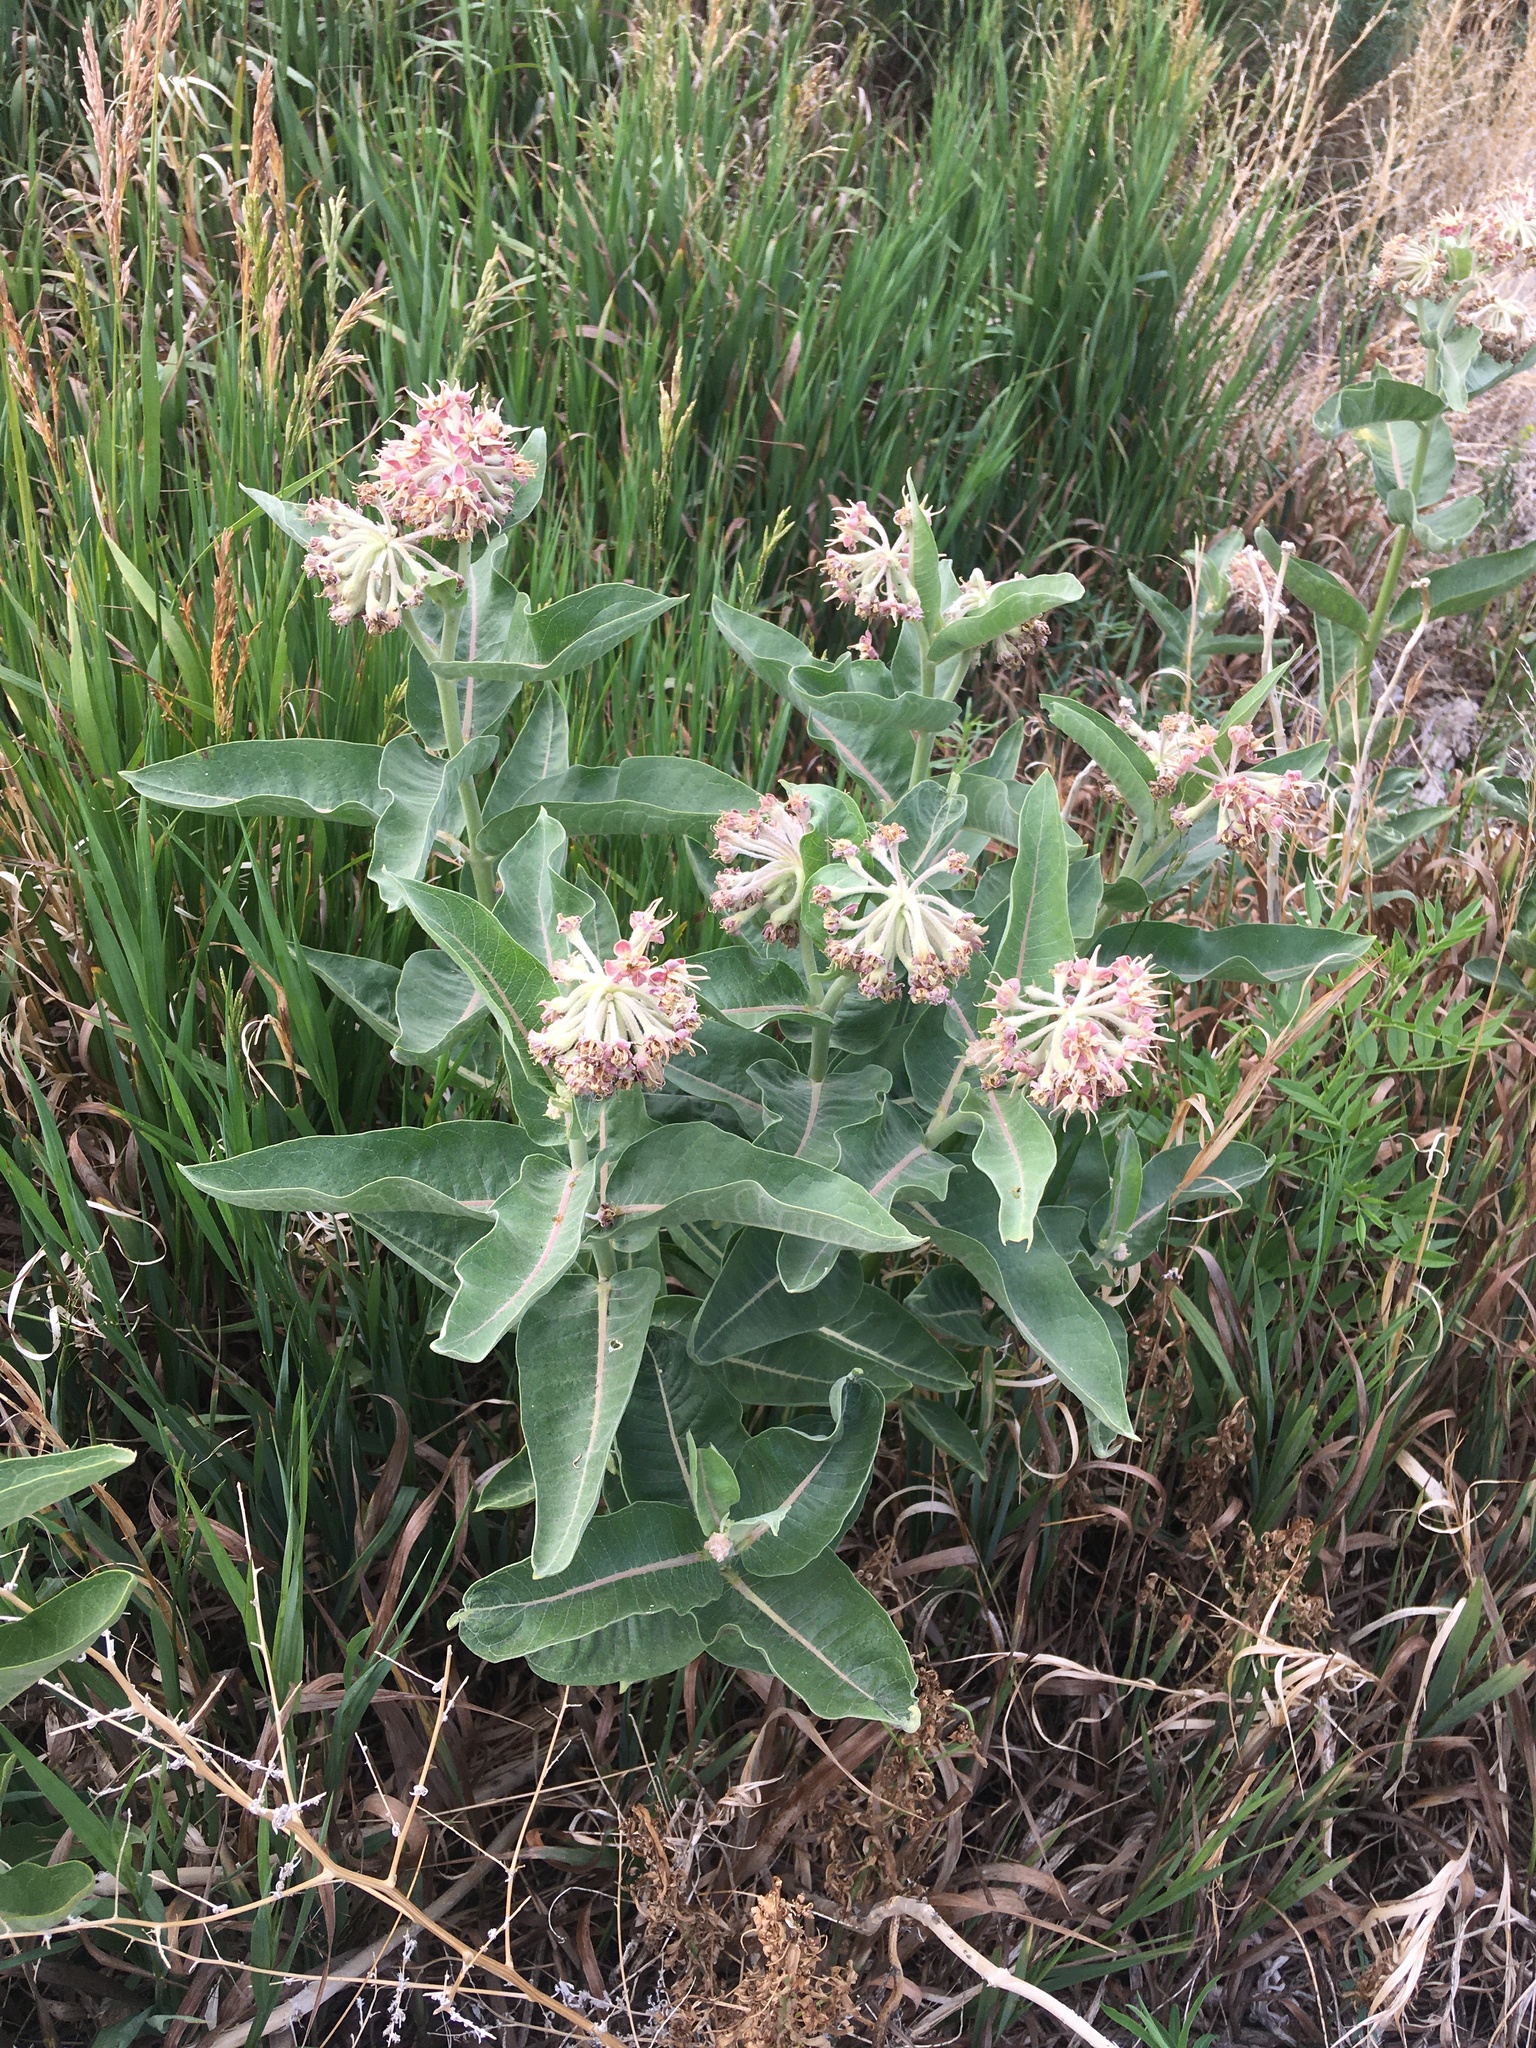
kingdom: Plantae
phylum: Tracheophyta
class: Magnoliopsida
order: Gentianales
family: Apocynaceae
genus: Asclepias
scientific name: Asclepias speciosa
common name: Showy milkweed
